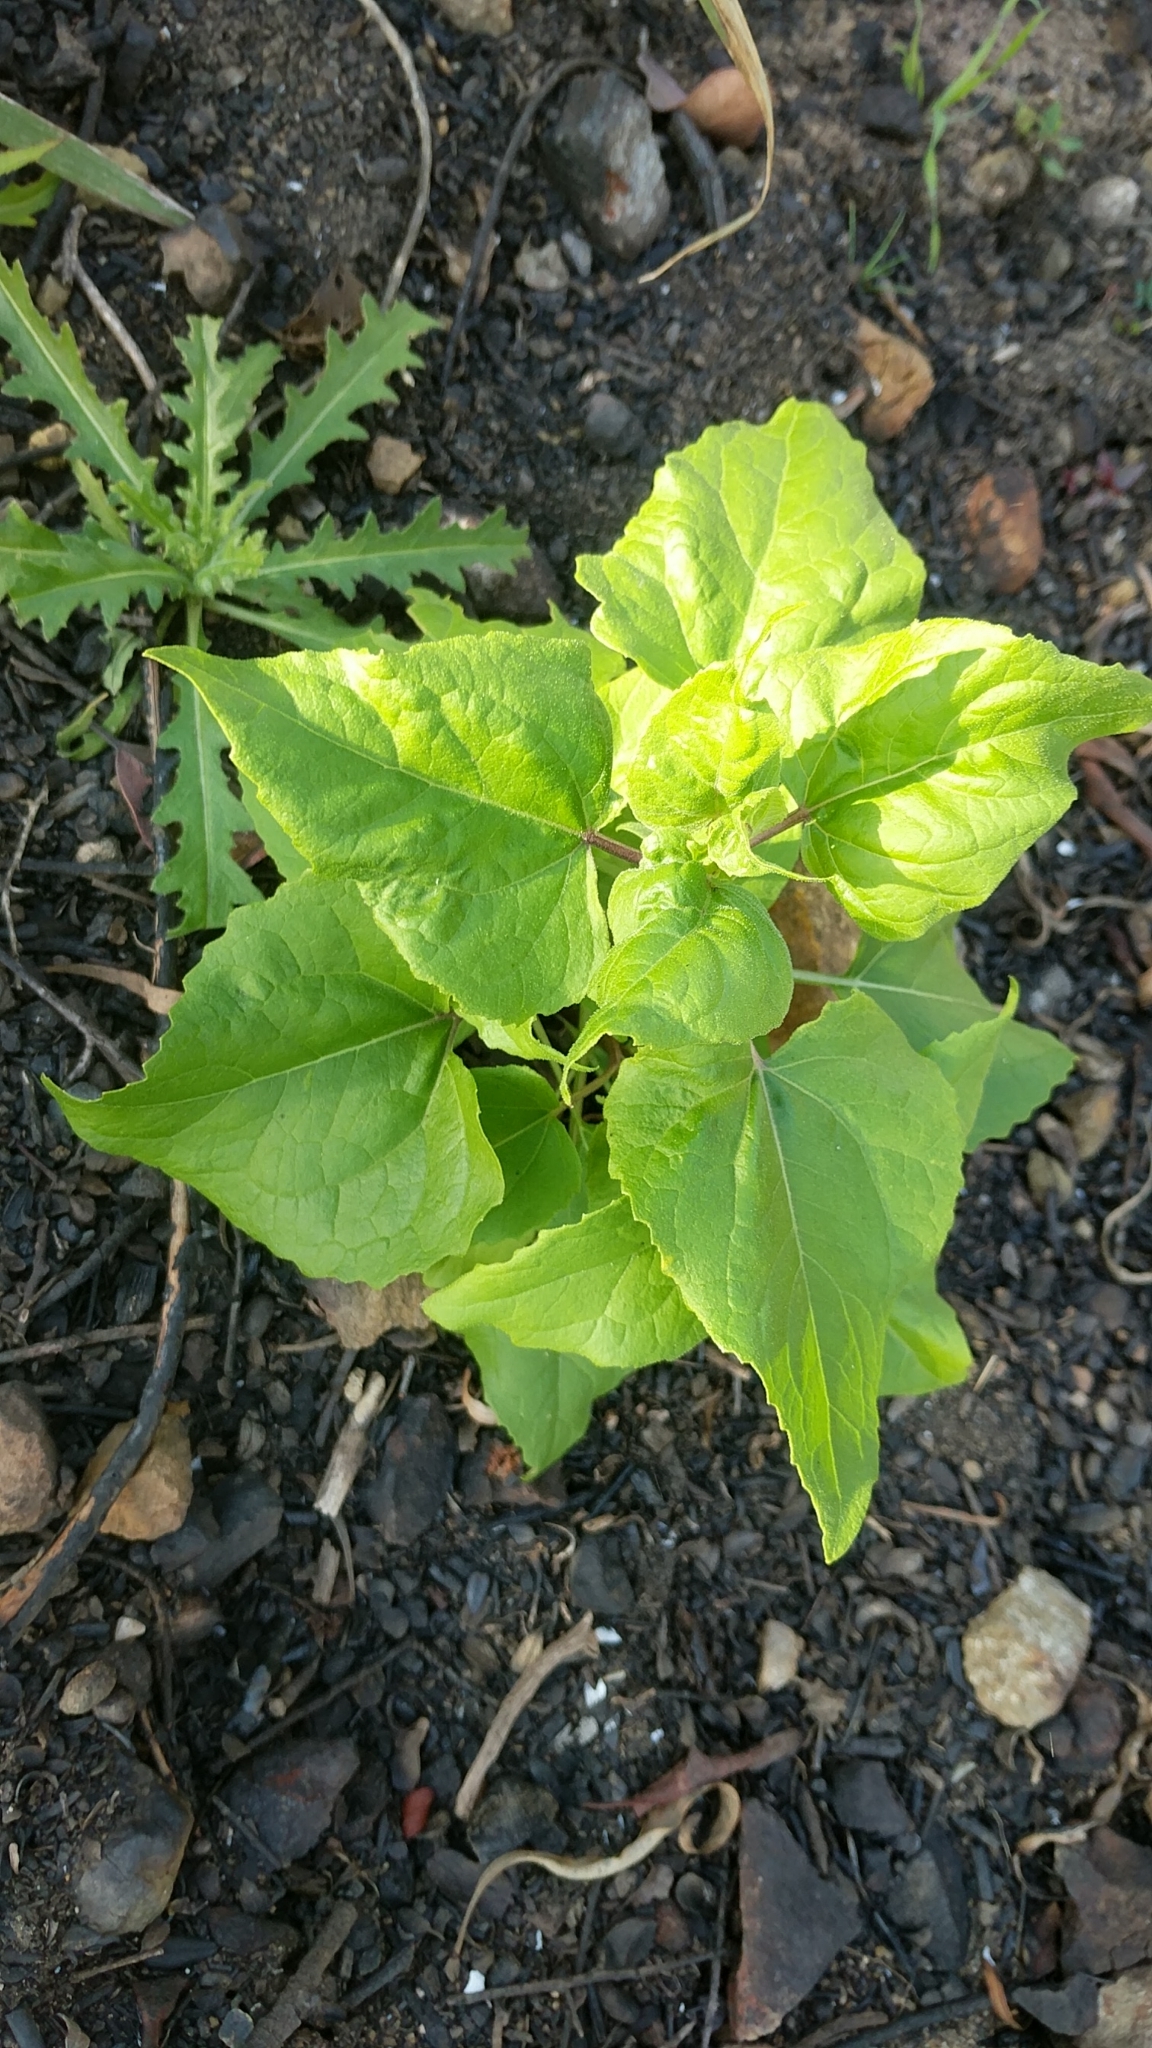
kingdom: Plantae
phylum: Tracheophyta
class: Magnoliopsida
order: Asterales
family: Asteraceae
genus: Venegasia
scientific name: Venegasia carpesioides
